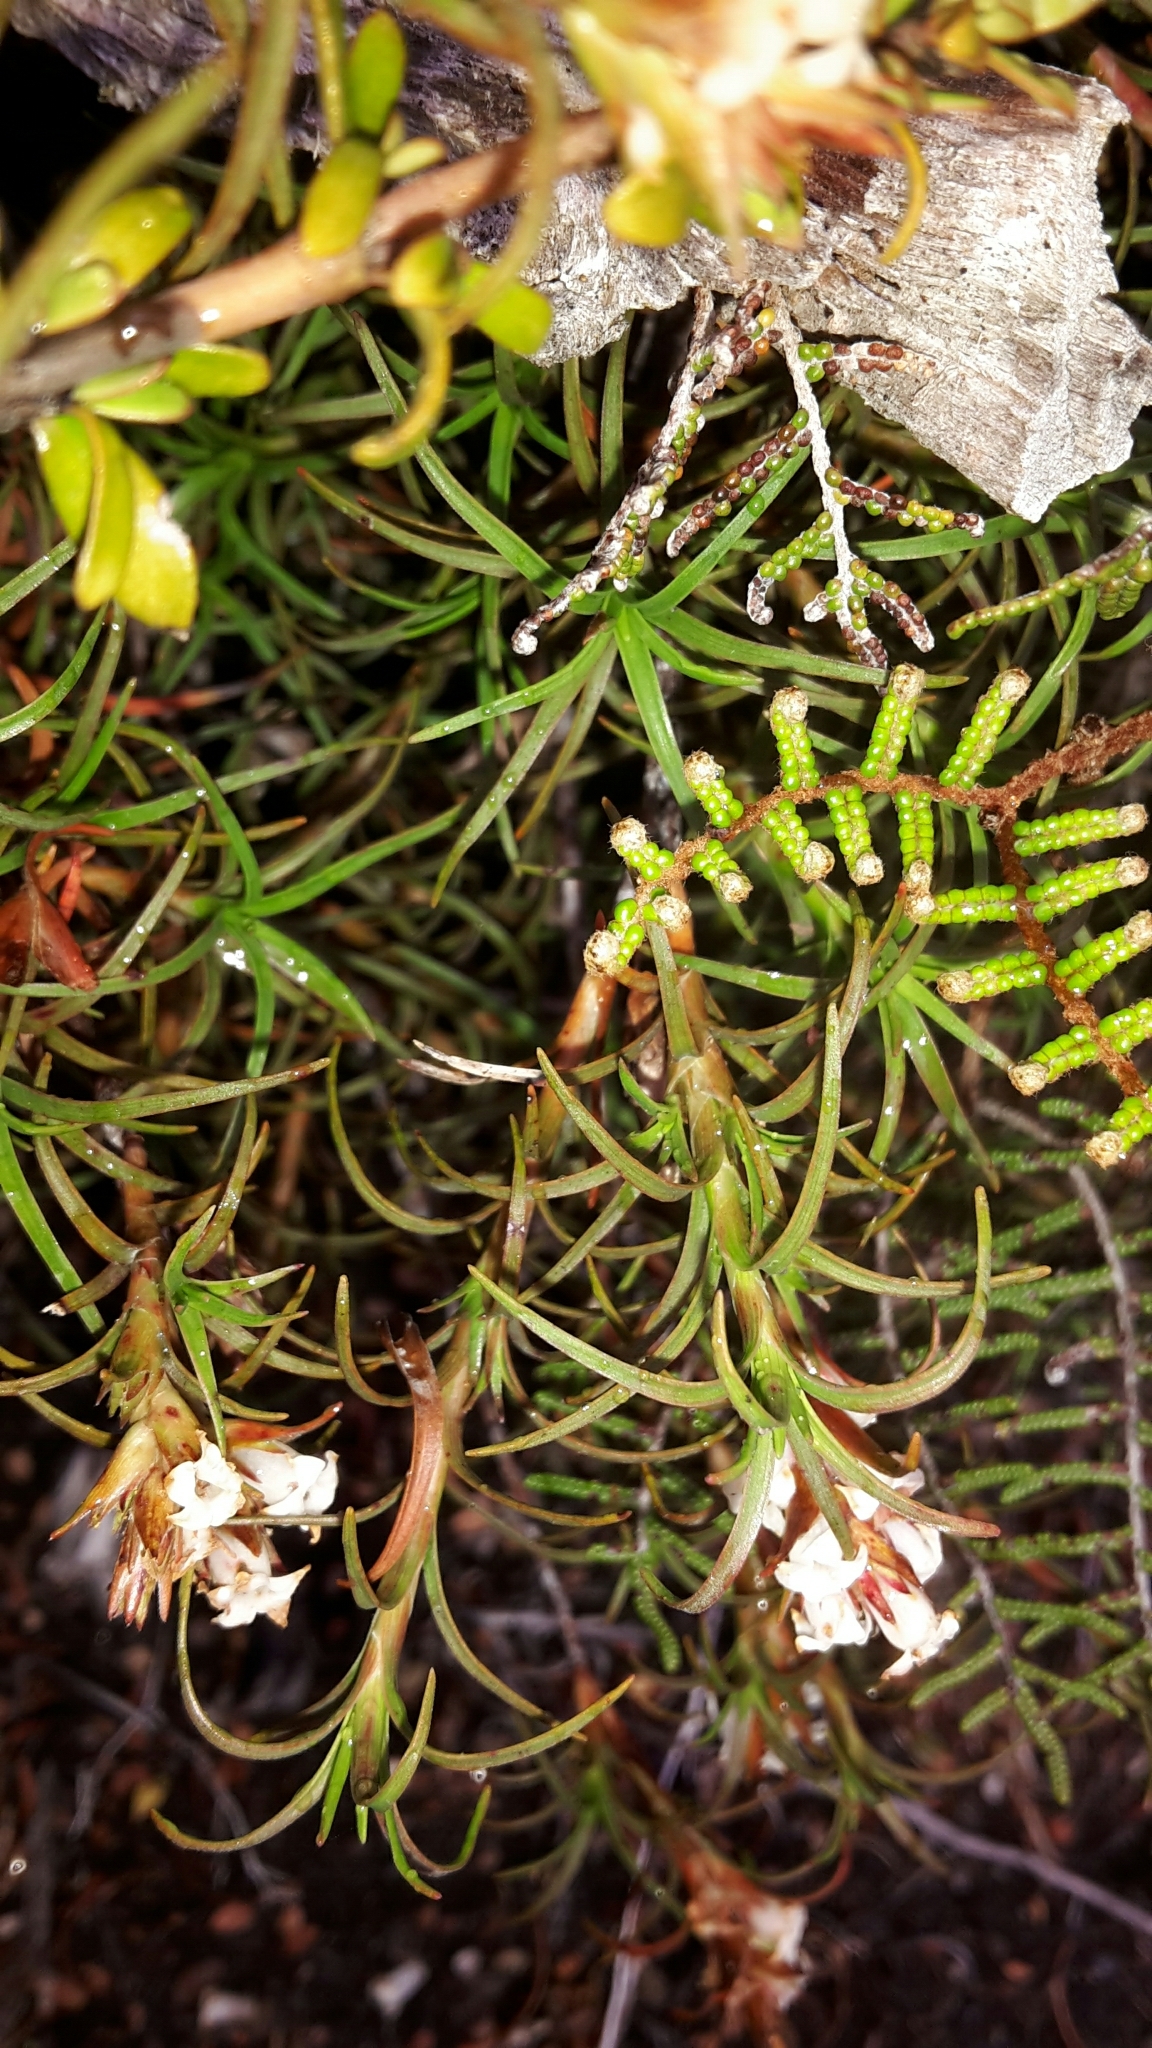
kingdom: Plantae
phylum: Tracheophyta
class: Magnoliopsida
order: Ericales
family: Ericaceae
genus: Dracophyllum
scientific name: Dracophyllum recurvum
